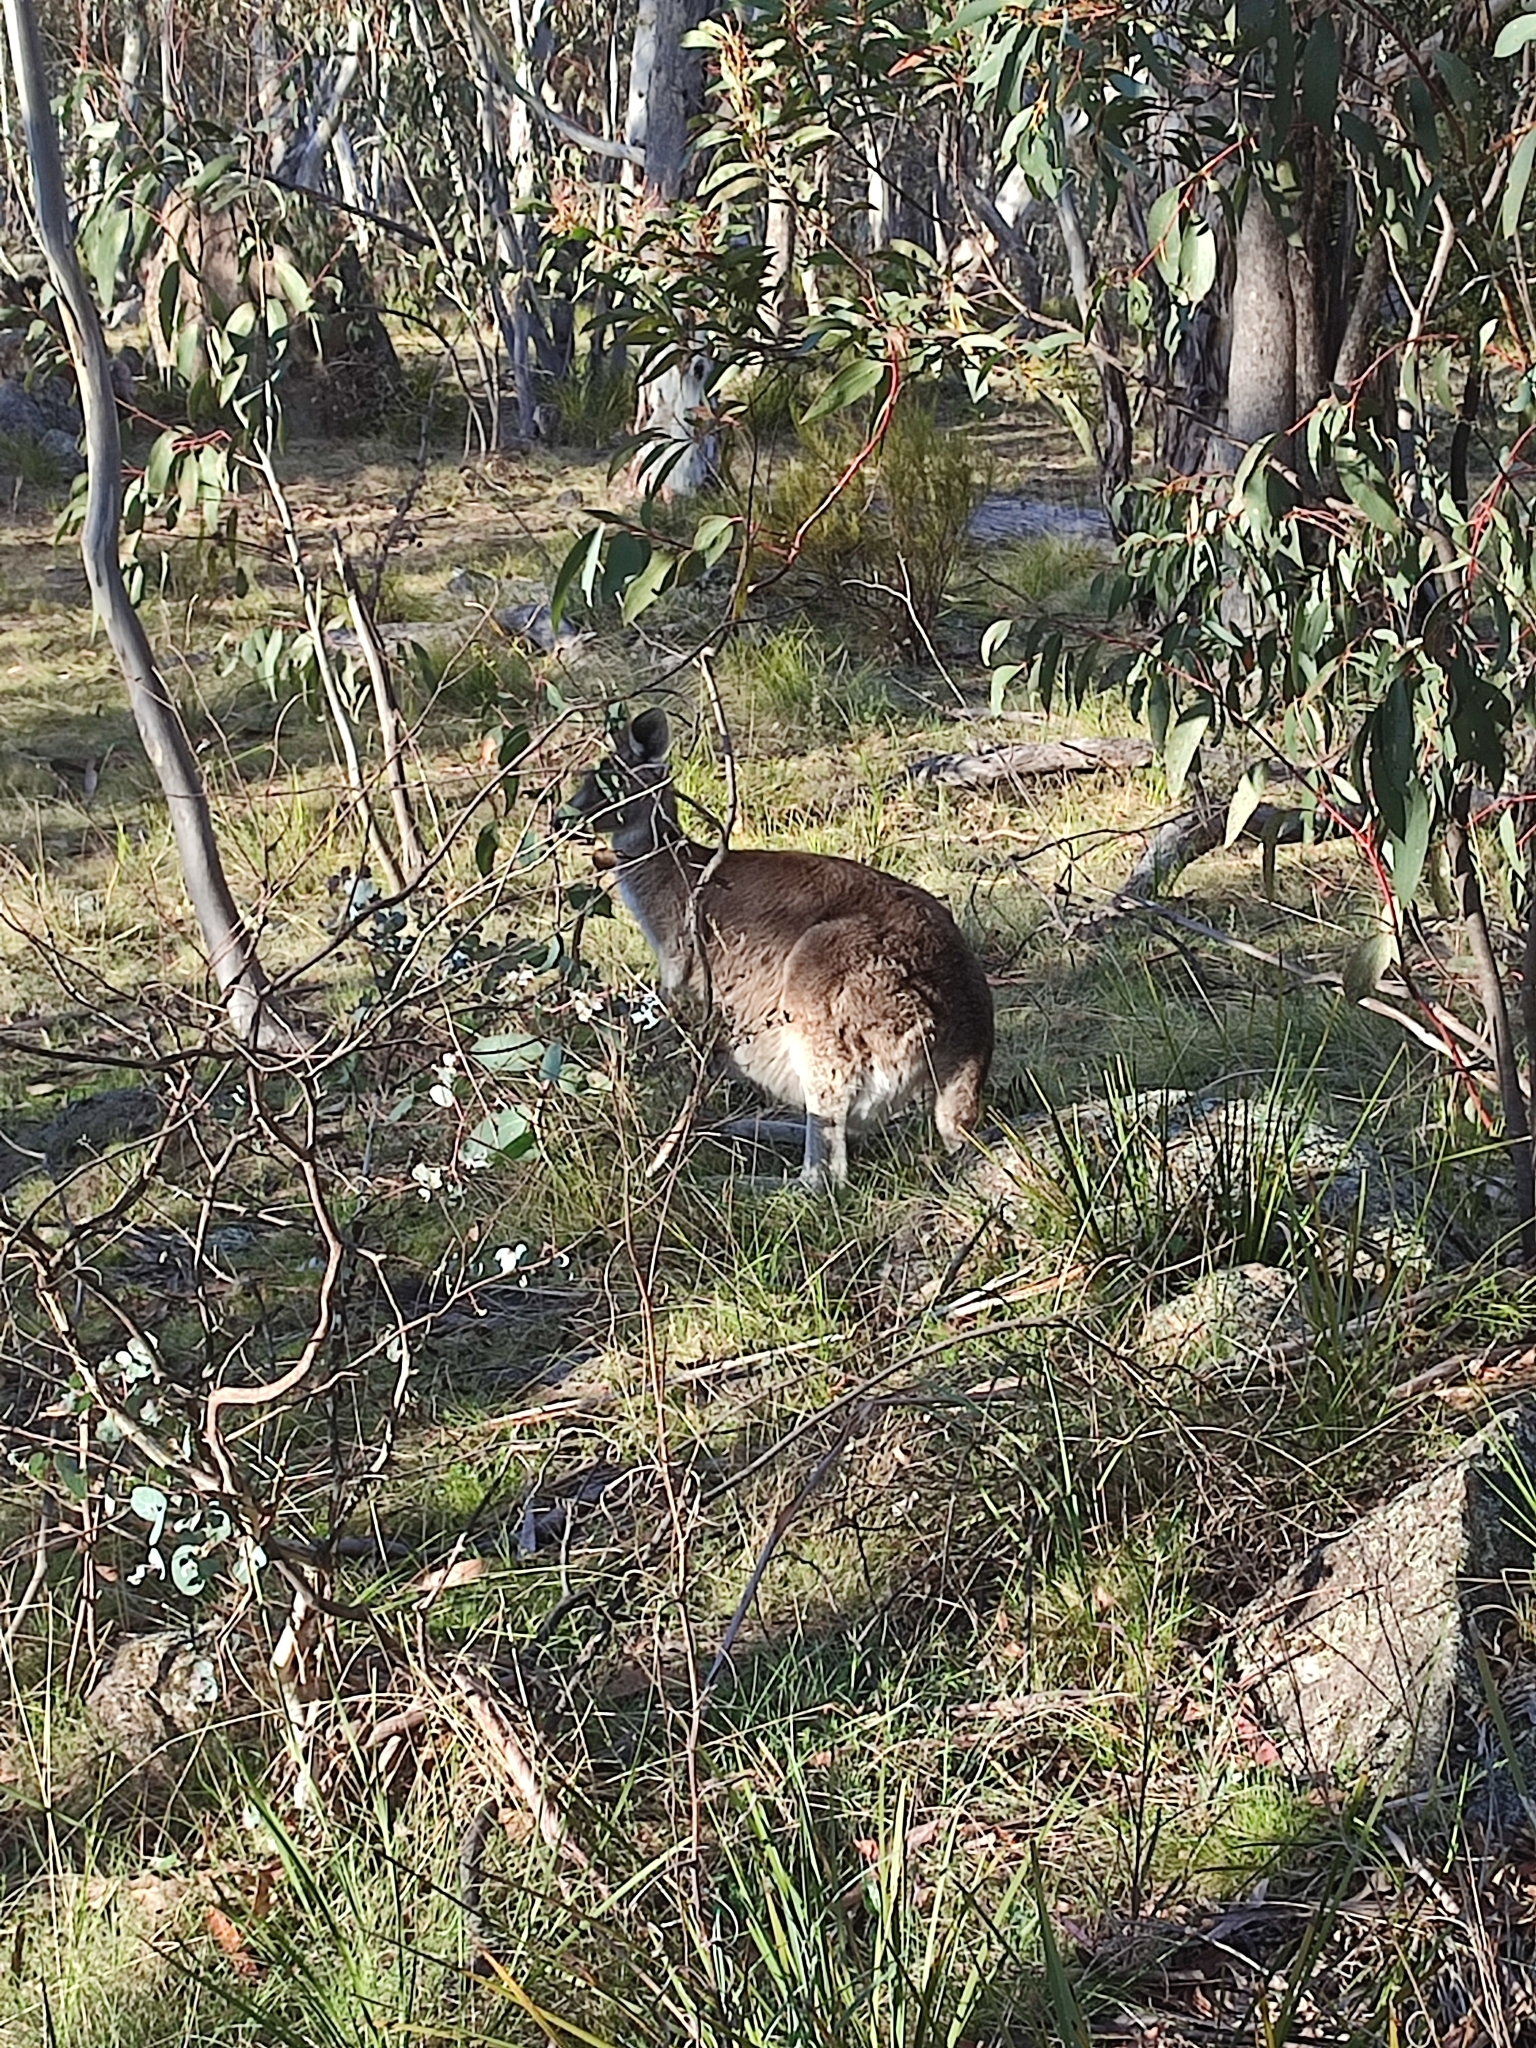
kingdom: Animalia
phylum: Chordata
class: Mammalia
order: Diprotodontia
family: Macropodidae
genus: Macropus
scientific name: Macropus giganteus
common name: Eastern grey kangaroo
